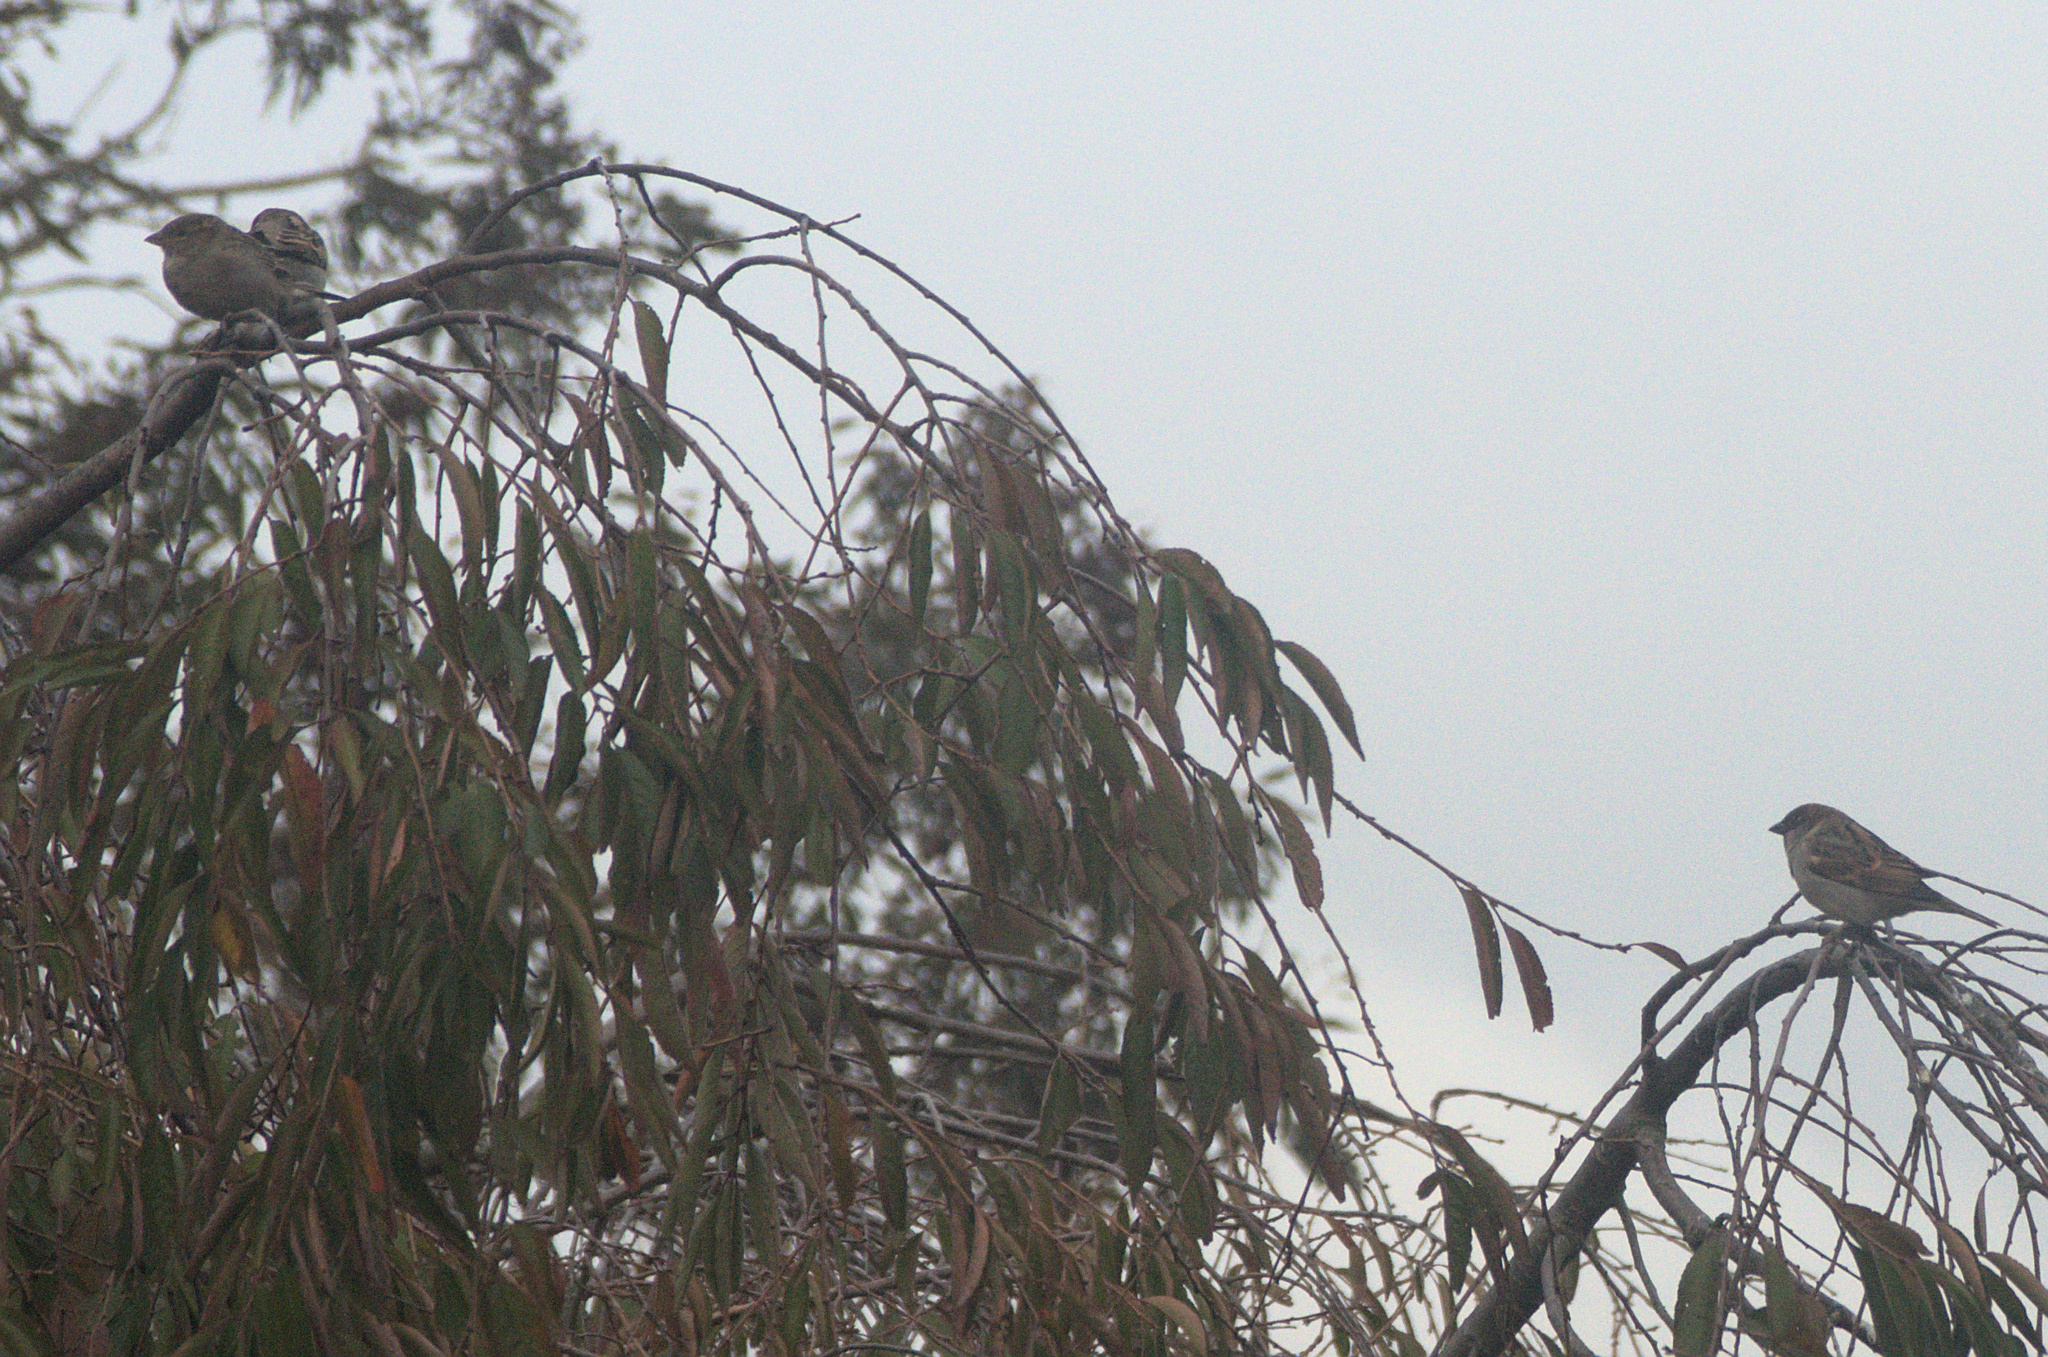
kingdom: Animalia
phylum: Chordata
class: Aves
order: Passeriformes
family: Passeridae
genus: Passer
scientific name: Passer domesticus
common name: House sparrow
